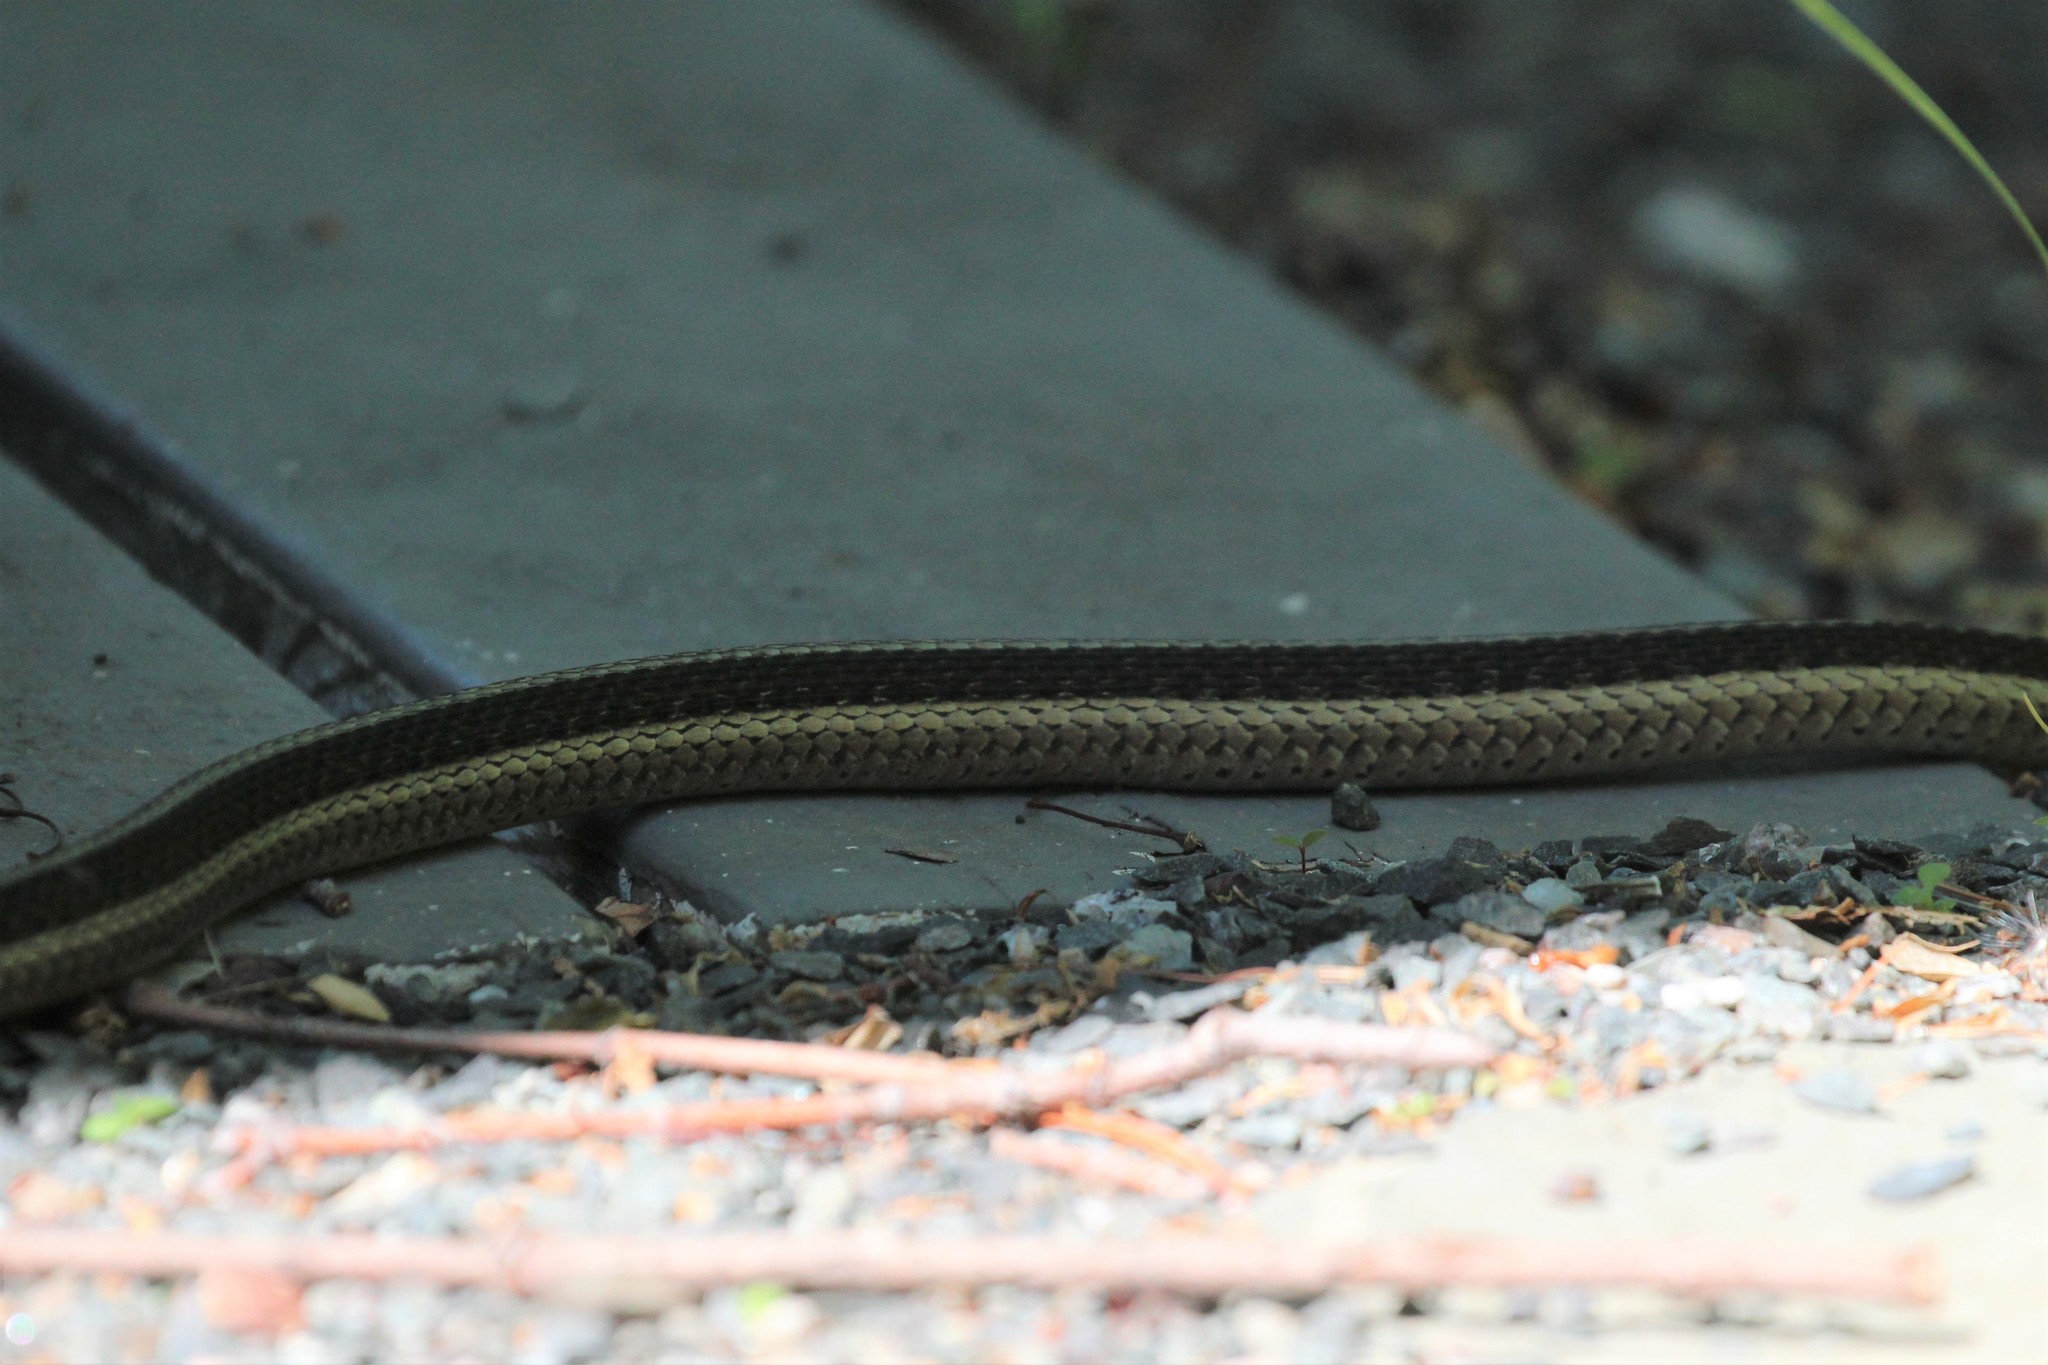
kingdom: Animalia
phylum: Chordata
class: Squamata
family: Colubridae
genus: Thamnophis
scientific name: Thamnophis sirtalis
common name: Common garter snake
